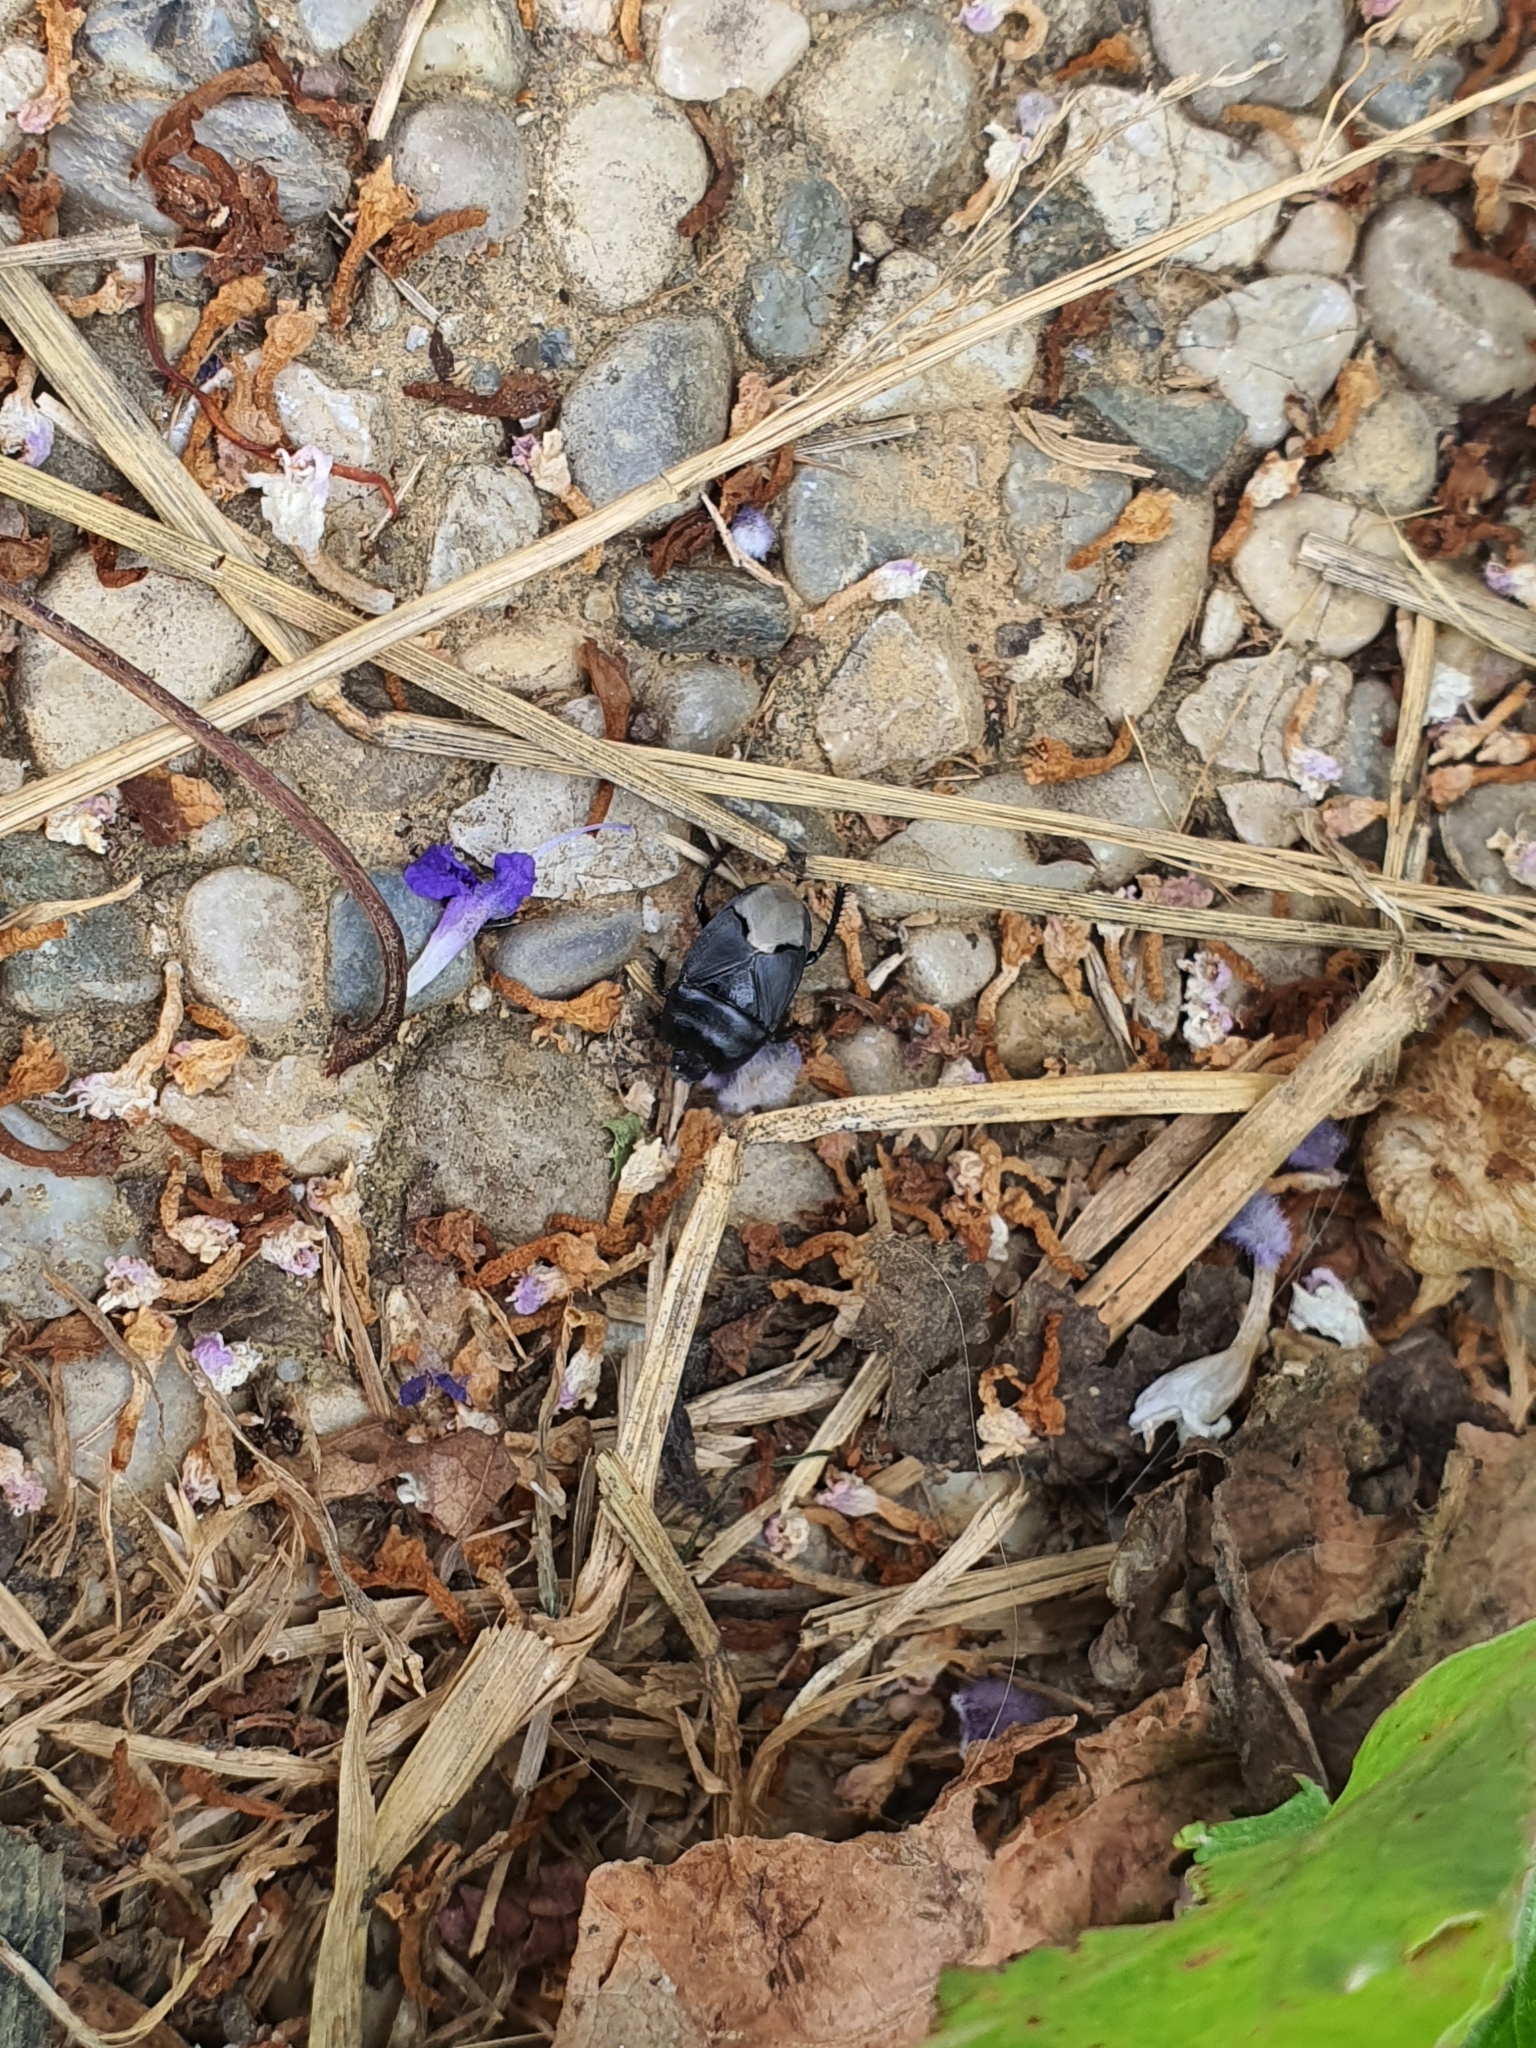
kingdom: Animalia
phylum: Arthropoda
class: Insecta
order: Hemiptera
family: Cydnidae
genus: Cydnus
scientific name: Cydnus aterrimus
